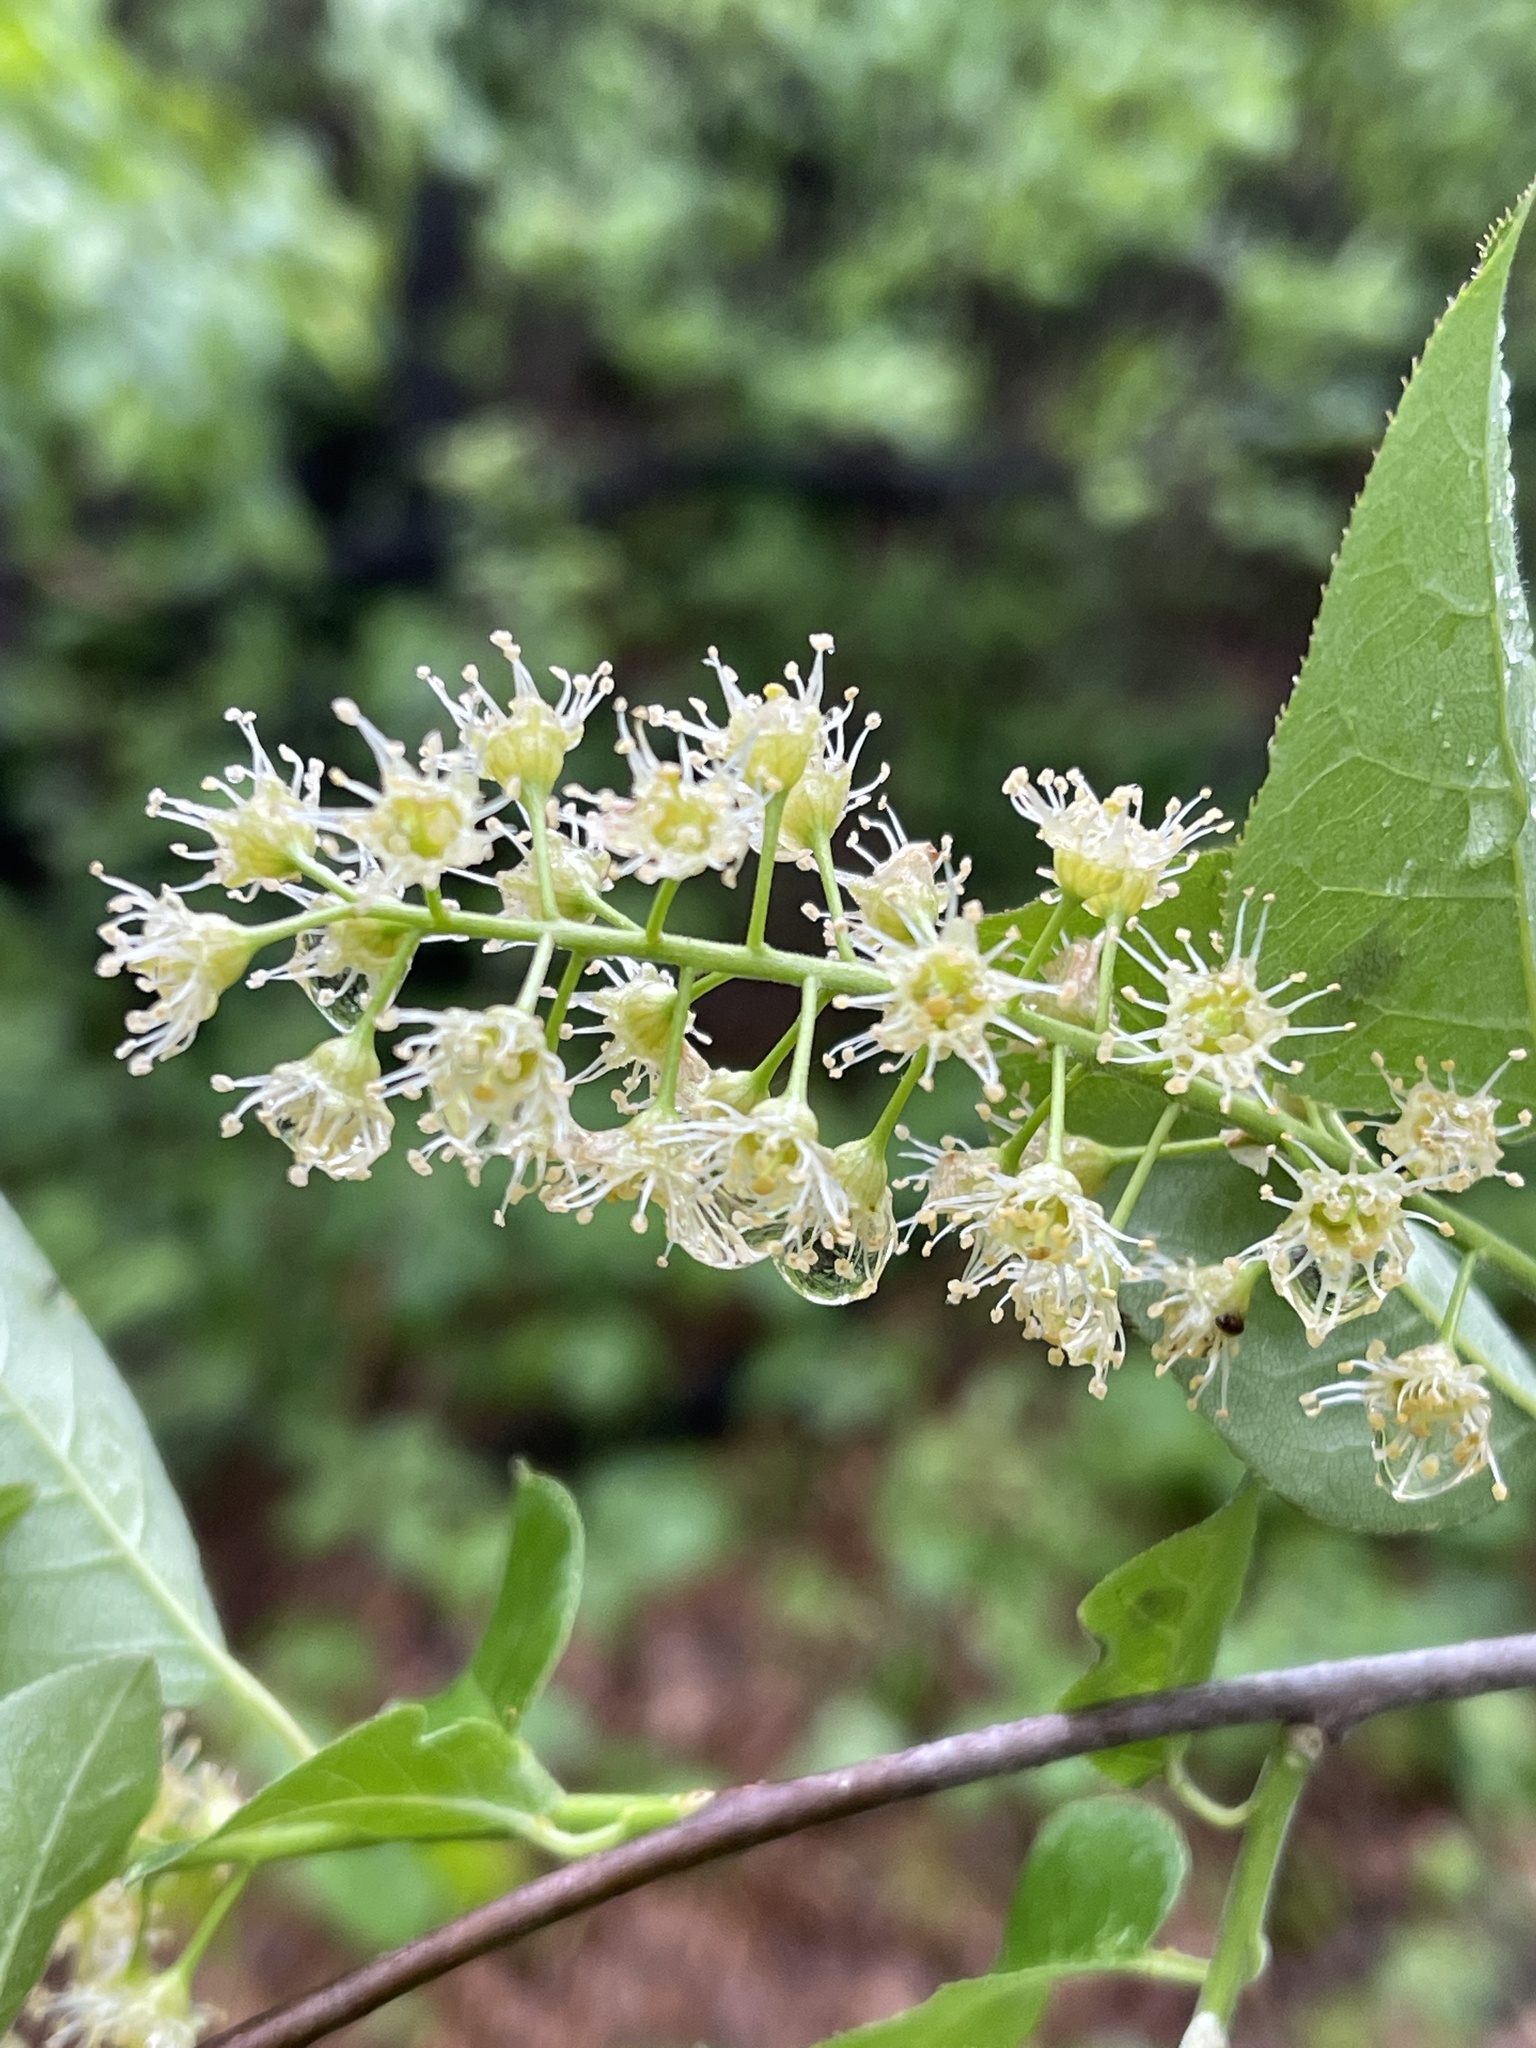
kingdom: Plantae
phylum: Tracheophyta
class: Magnoliopsida
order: Rosales
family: Rosaceae
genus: Prunus
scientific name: Prunus virginiana
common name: Chokecherry
